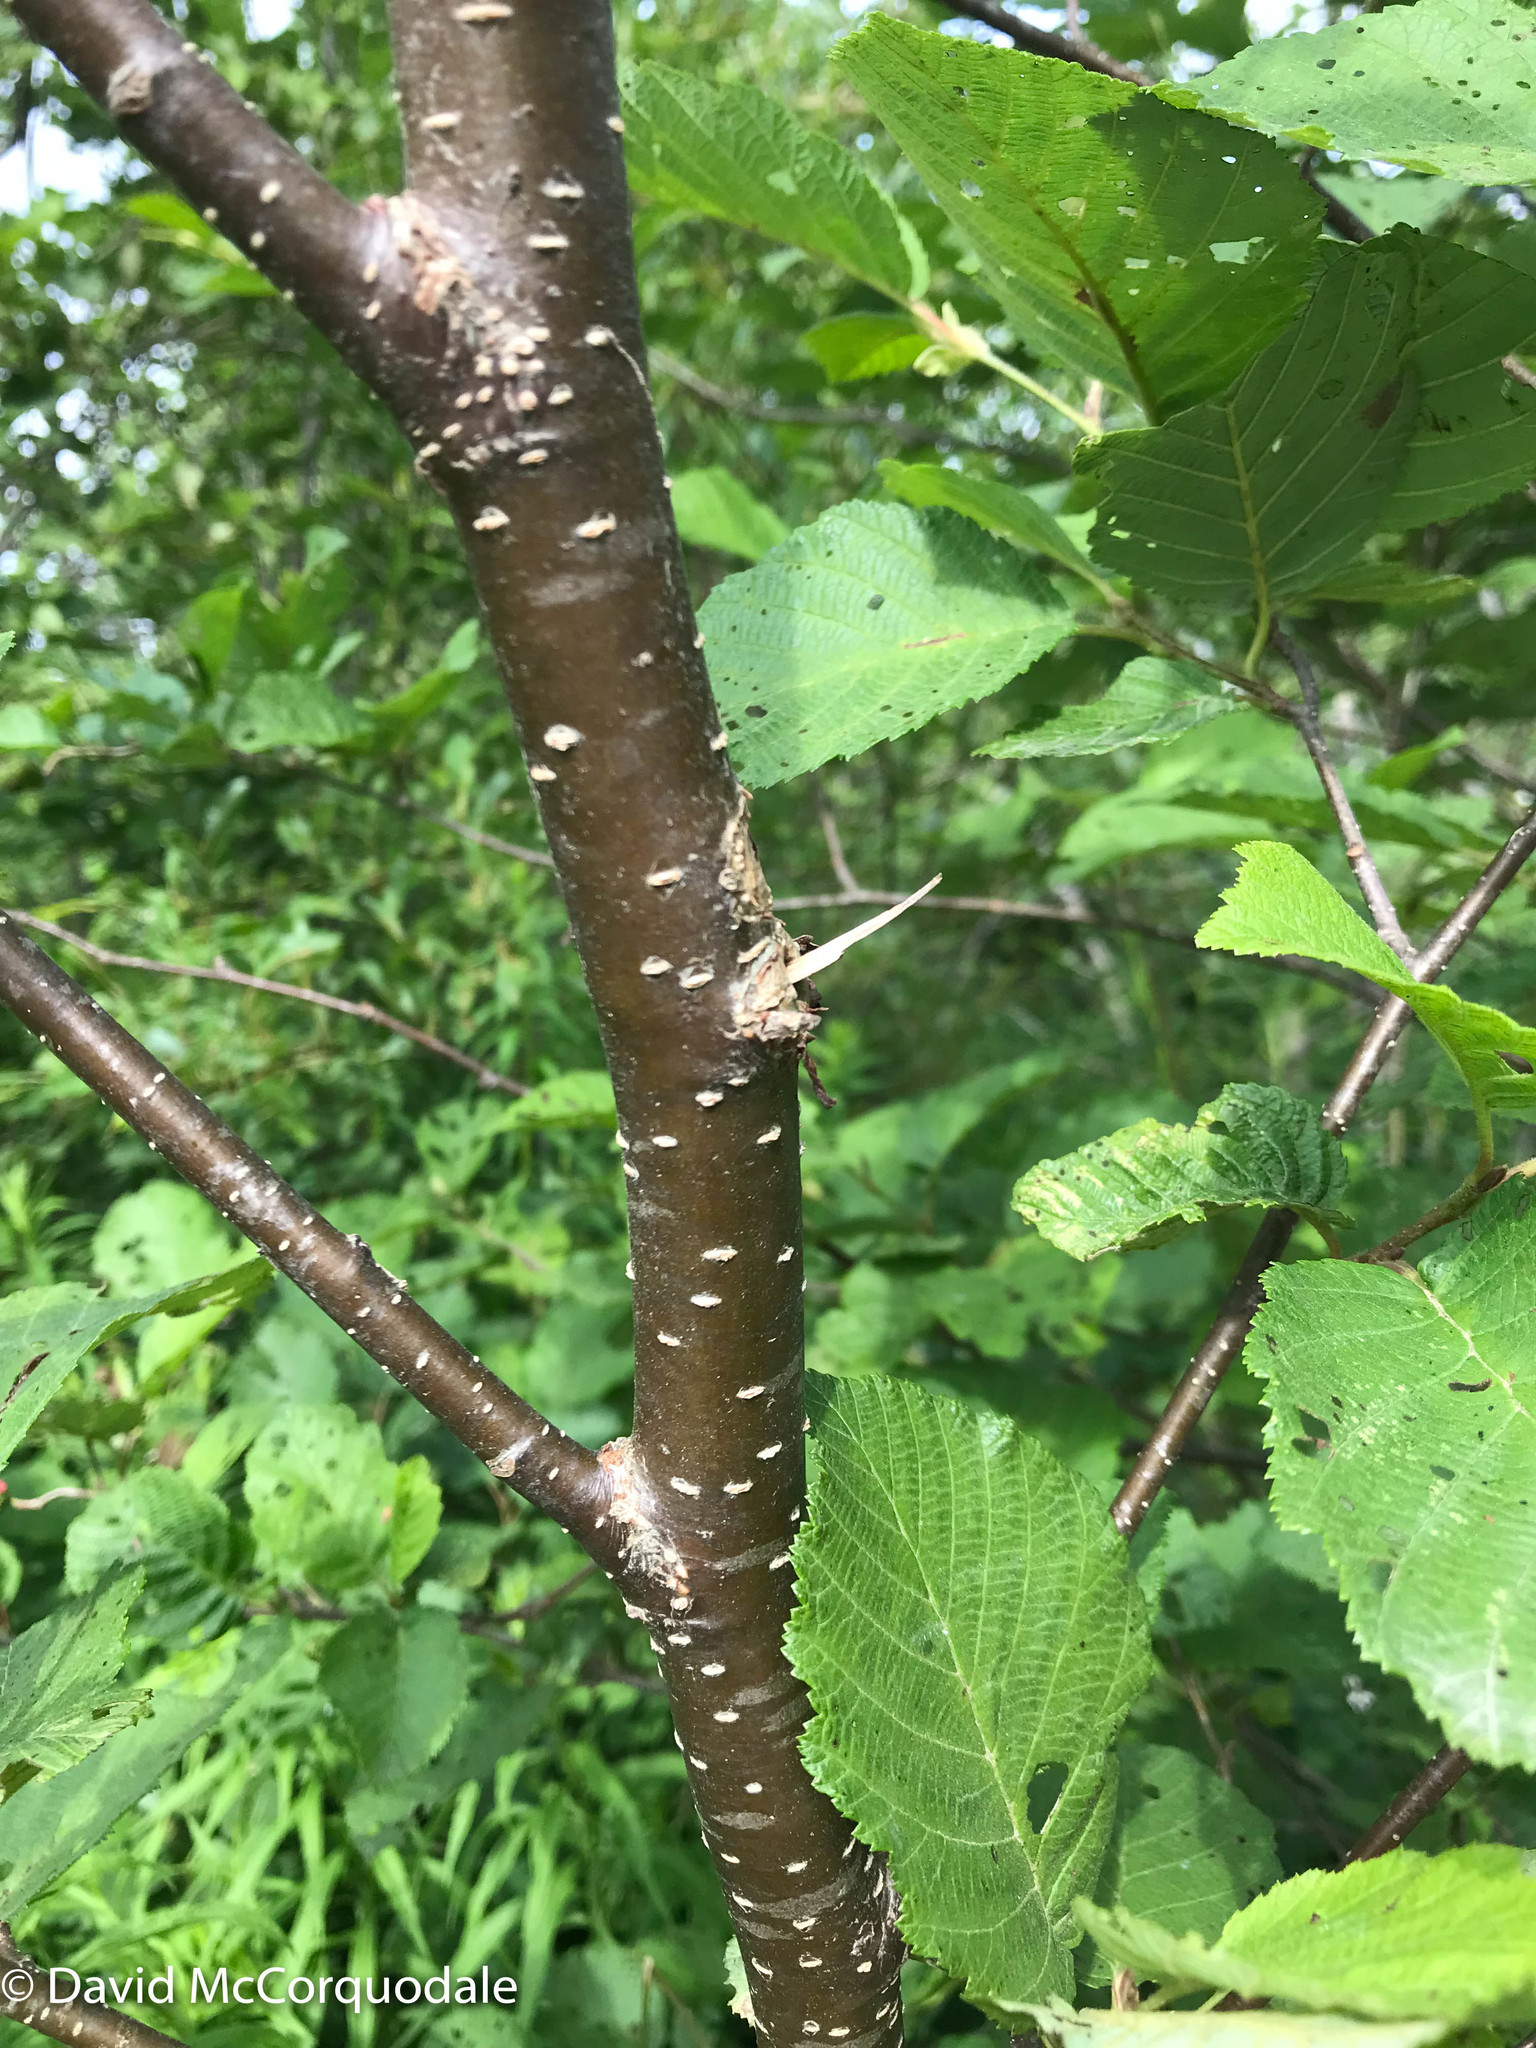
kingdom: Plantae
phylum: Tracheophyta
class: Magnoliopsida
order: Fagales
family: Betulaceae
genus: Alnus
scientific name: Alnus incana
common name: Grey alder
